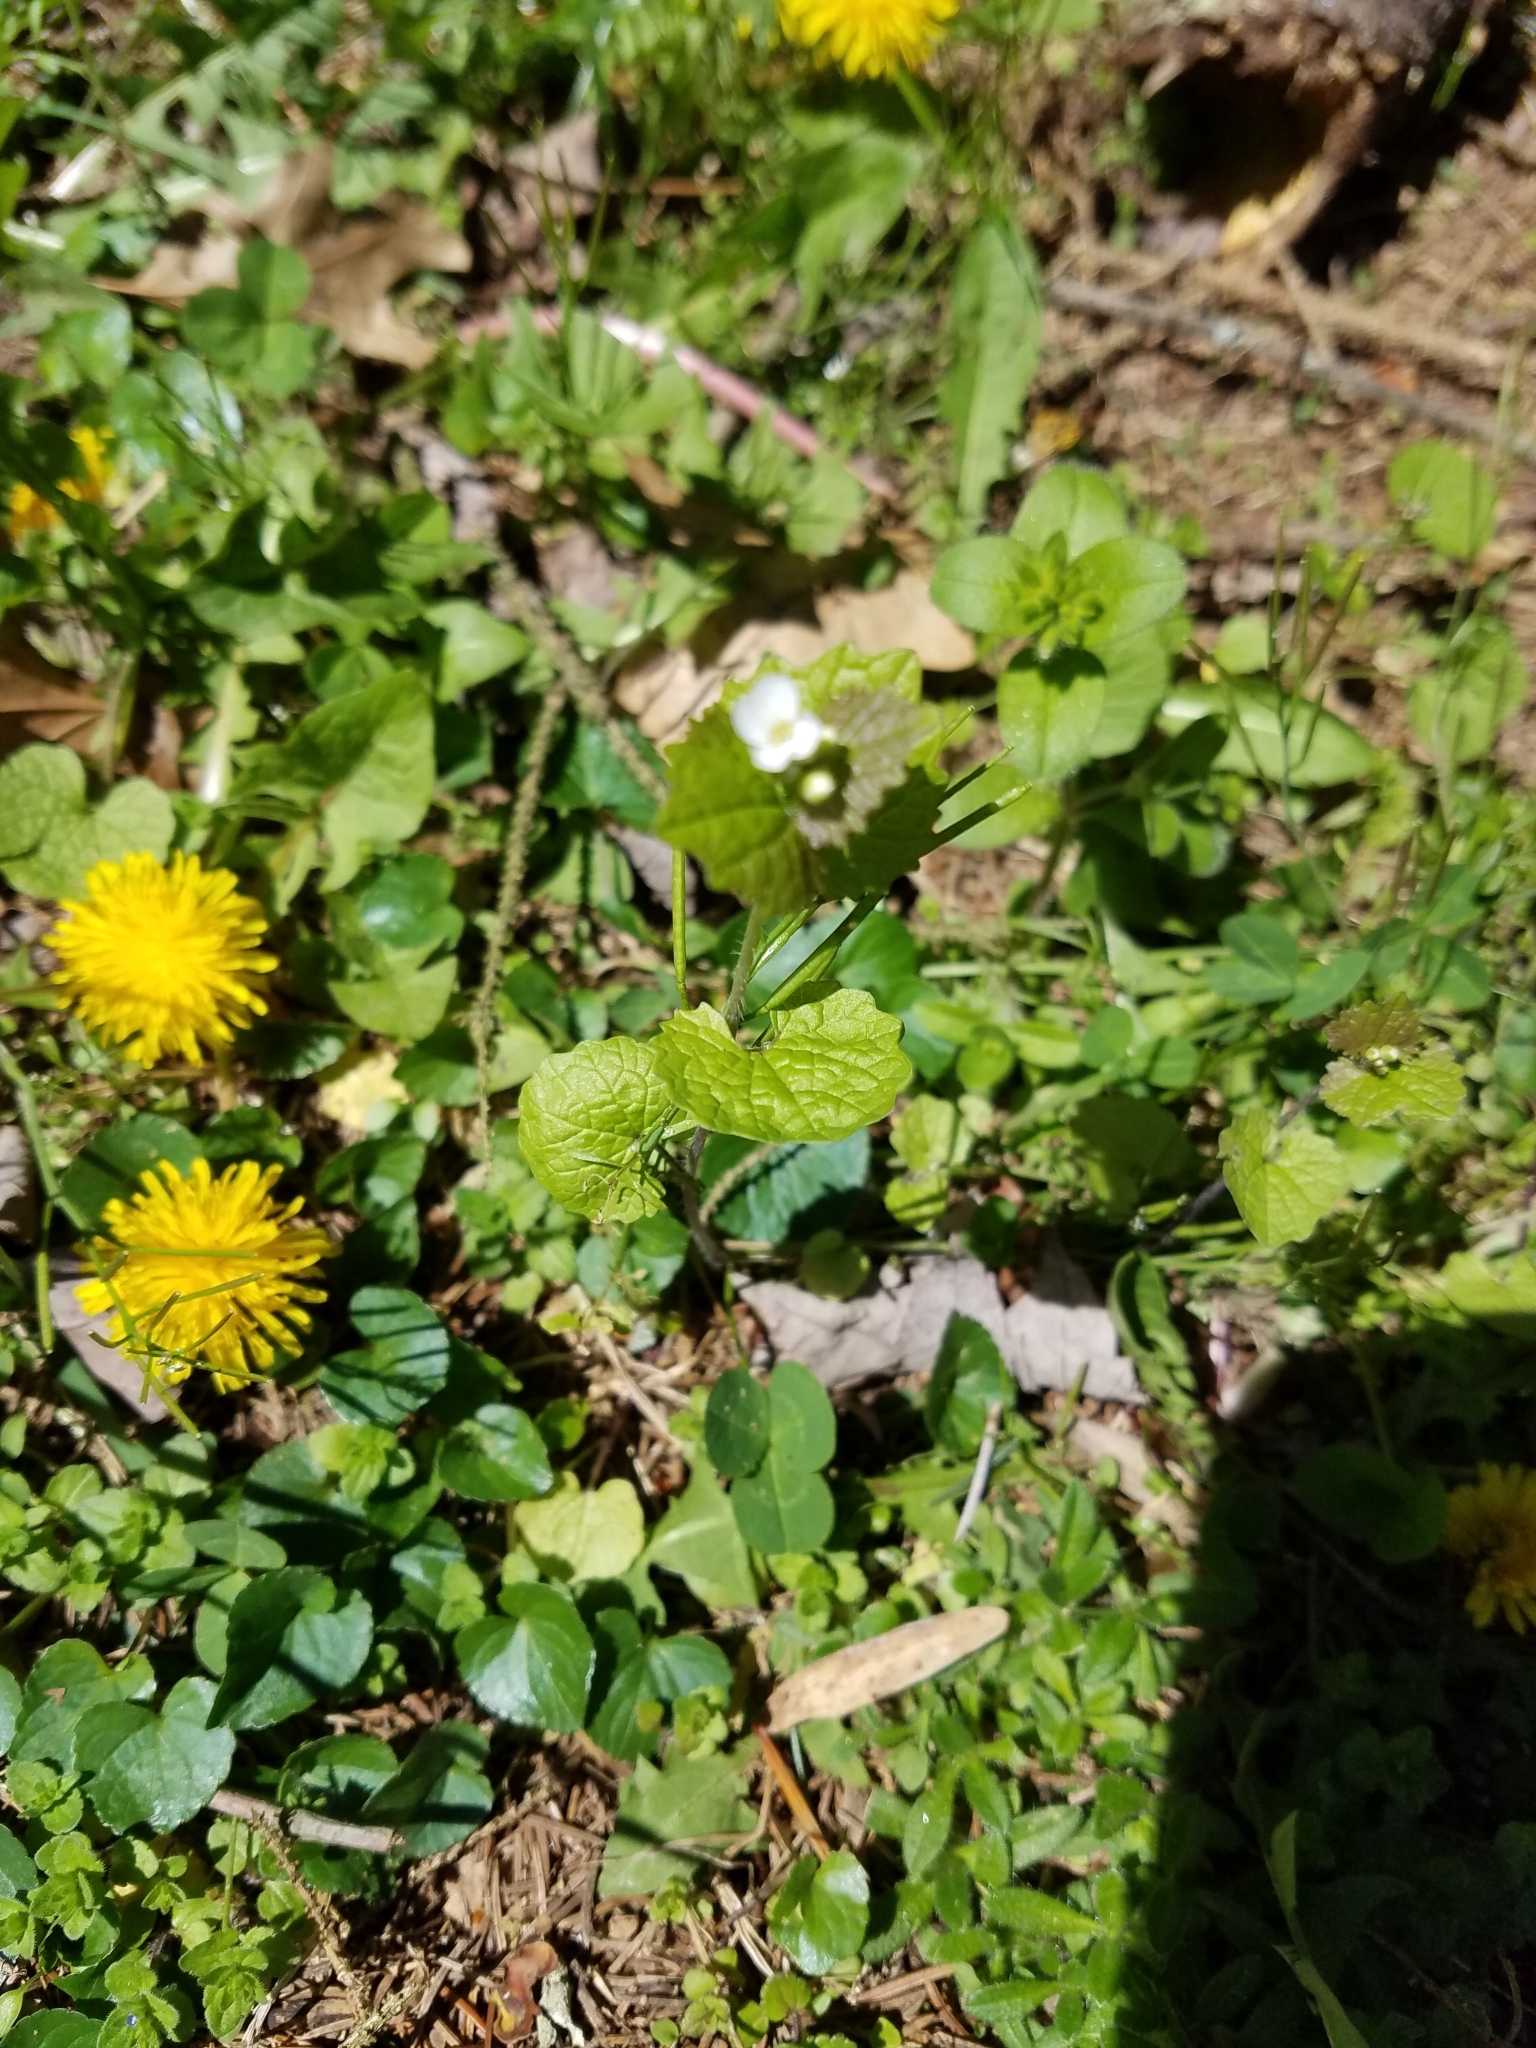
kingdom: Plantae
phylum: Tracheophyta
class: Magnoliopsida
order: Brassicales
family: Brassicaceae
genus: Alliaria
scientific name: Alliaria petiolata
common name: Garlic mustard
